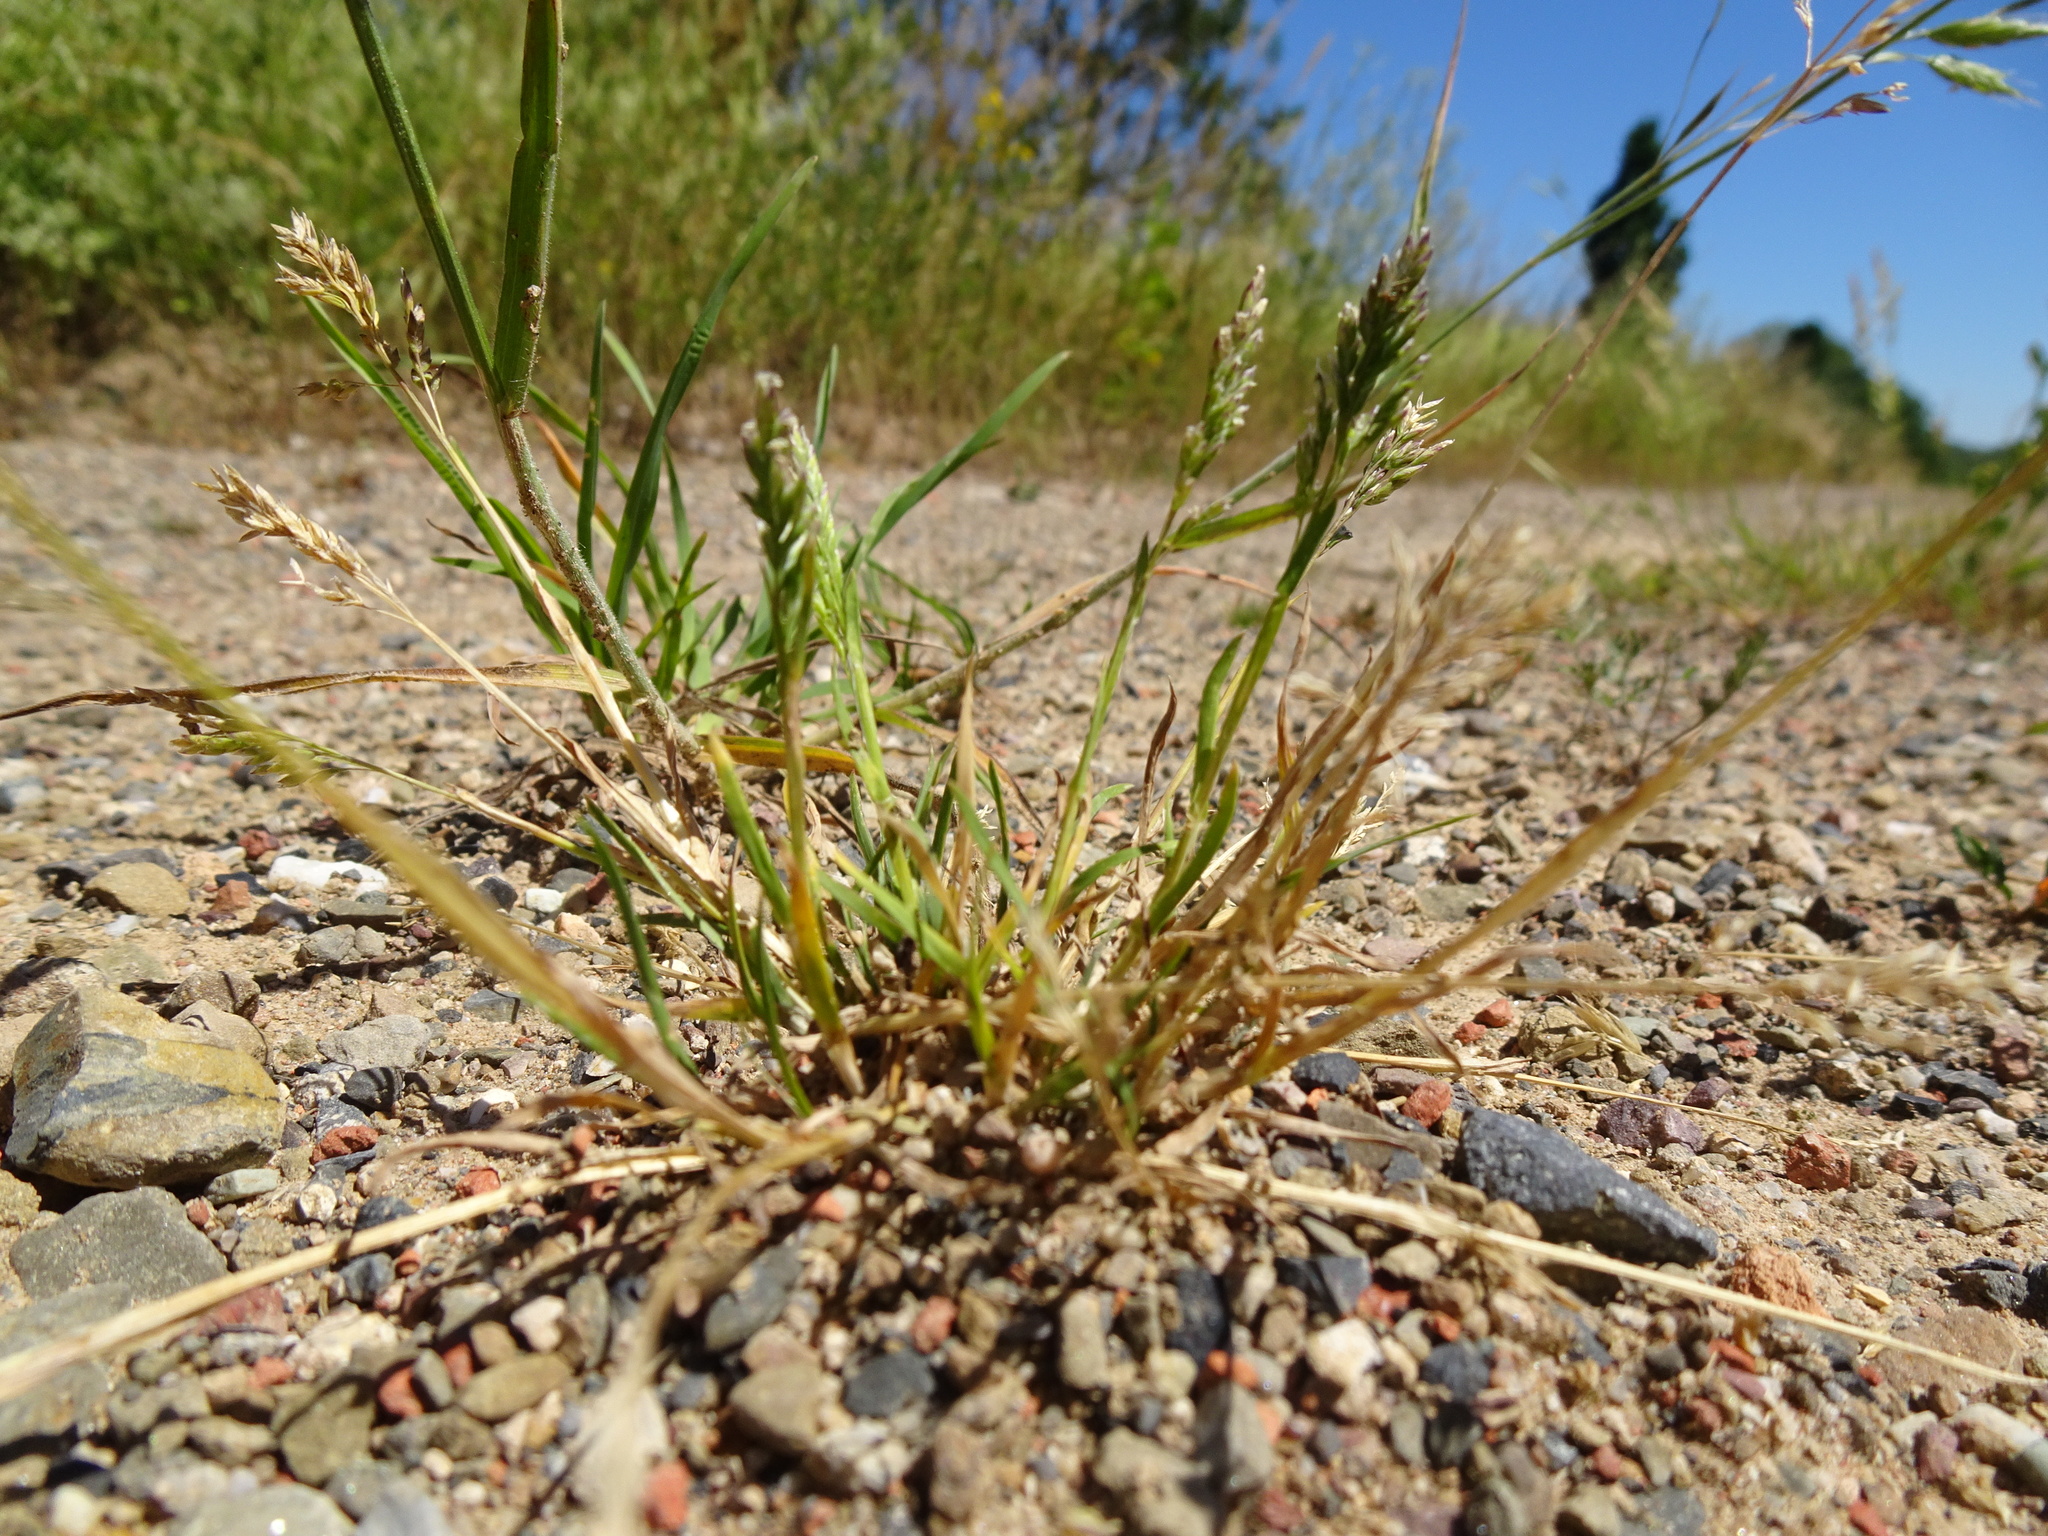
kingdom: Plantae
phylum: Tracheophyta
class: Liliopsida
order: Poales
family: Poaceae
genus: Poa
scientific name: Poa annua
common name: Annual bluegrass
